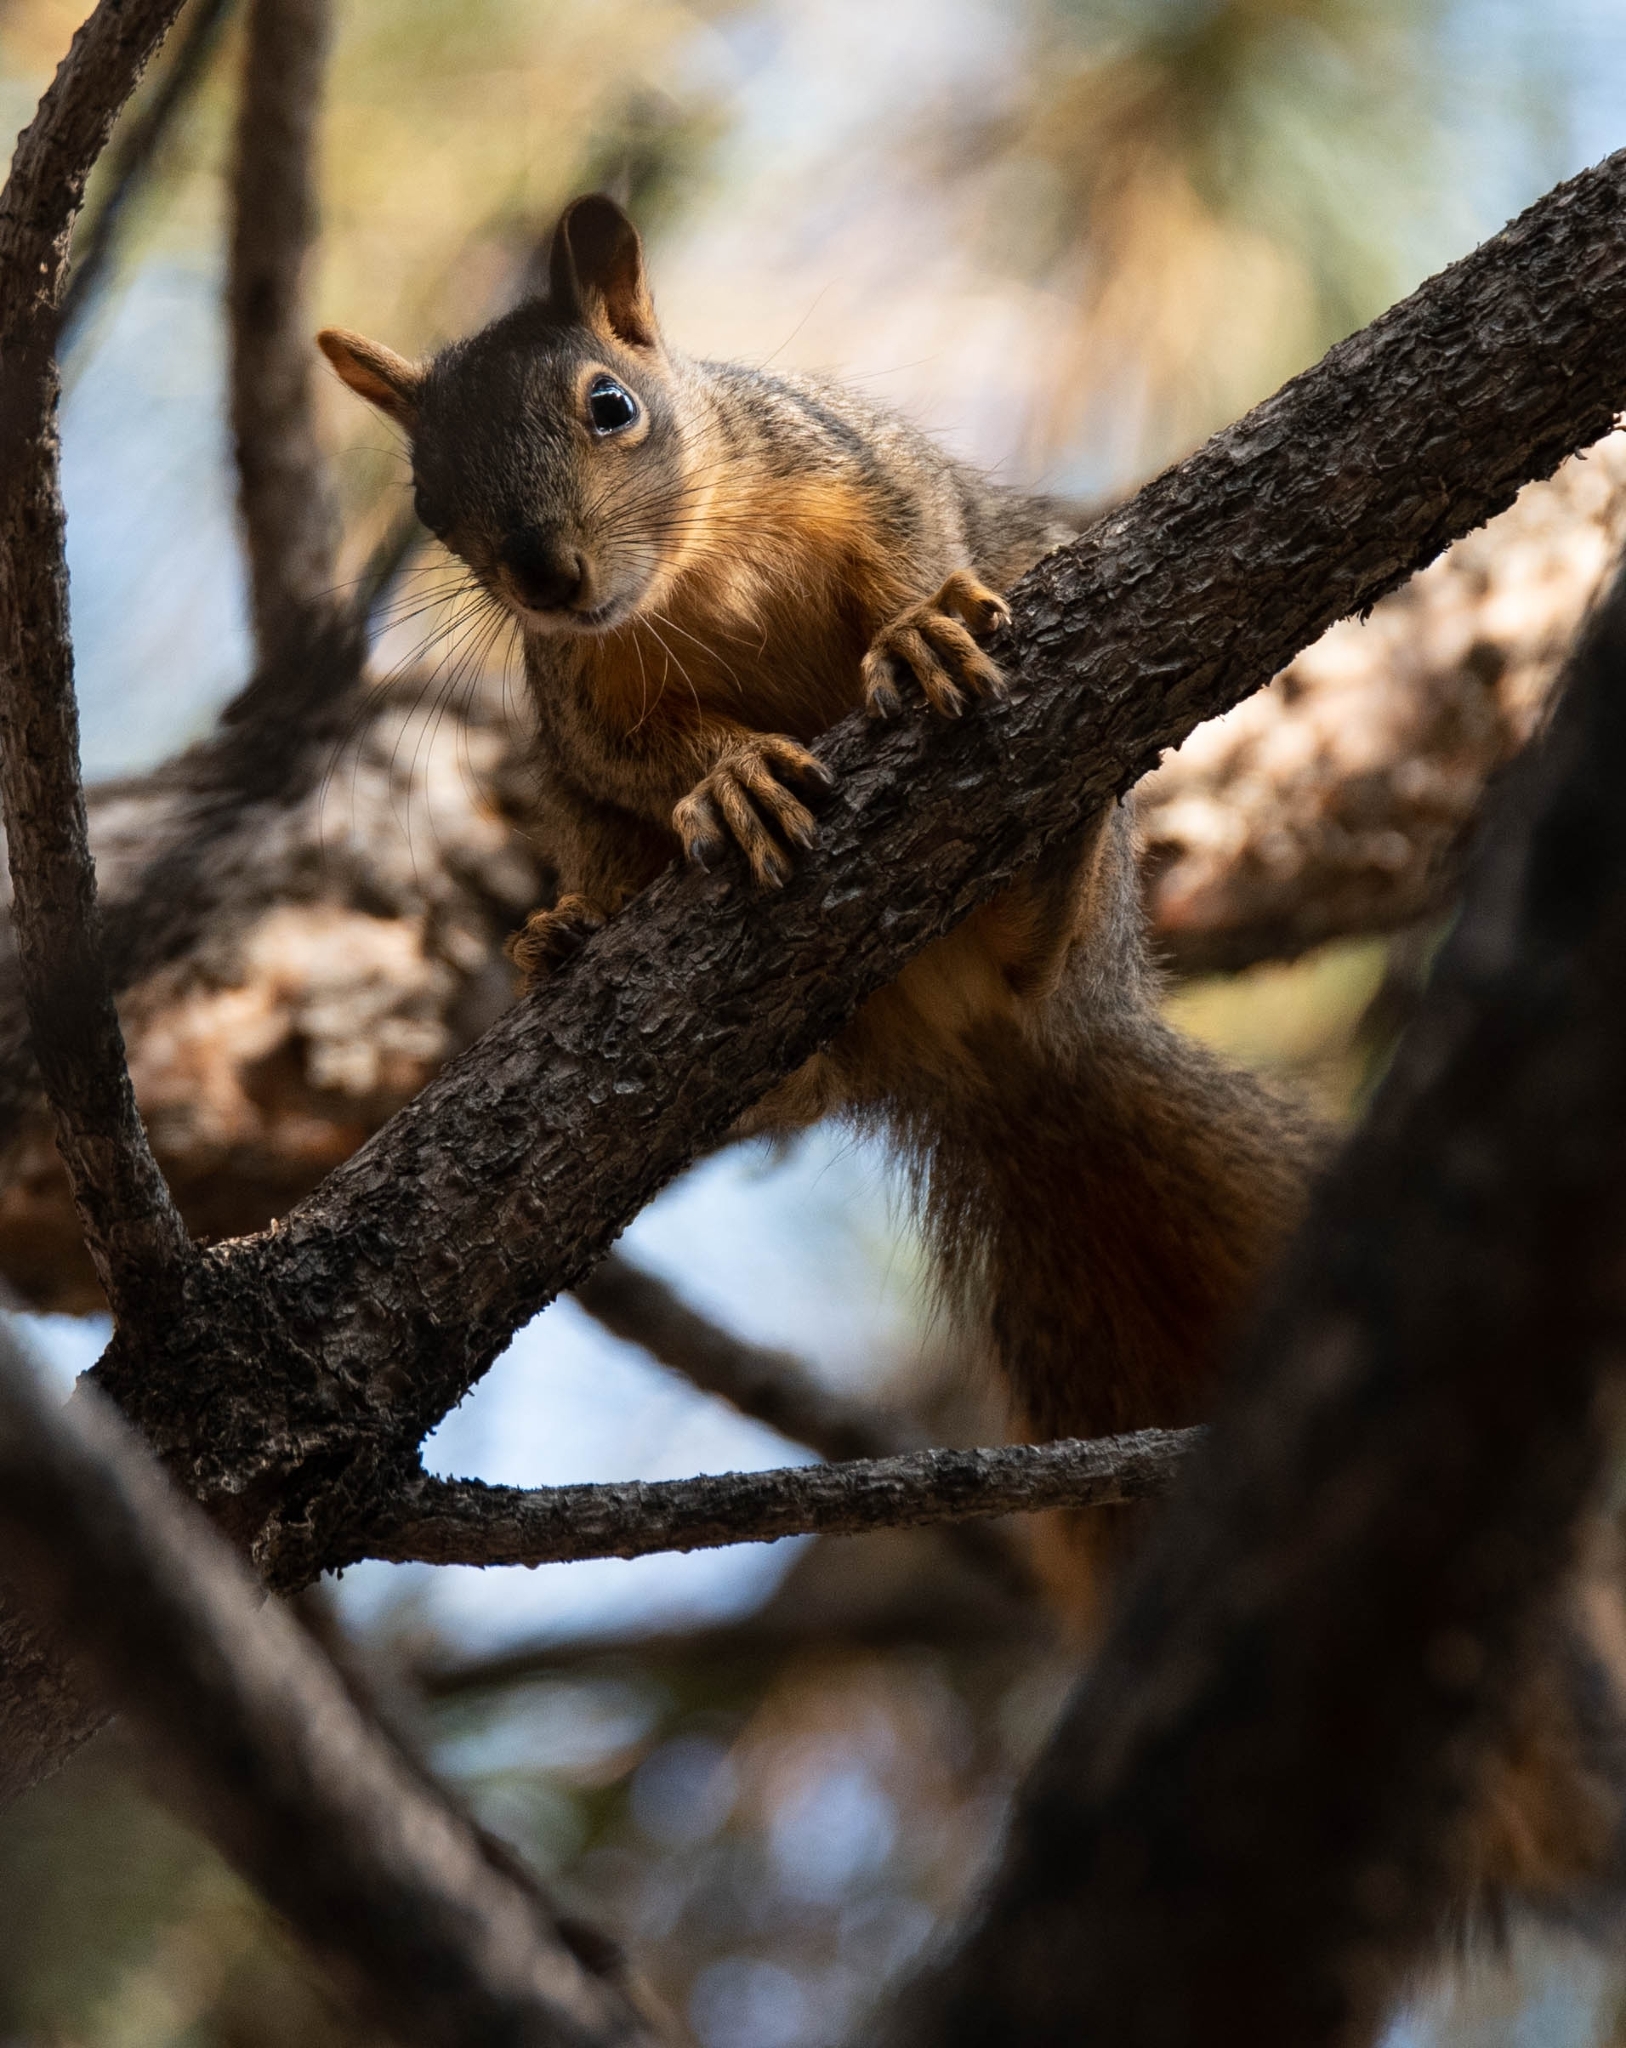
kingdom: Animalia
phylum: Chordata
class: Mammalia
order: Rodentia
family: Sciuridae
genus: Sciurus
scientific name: Sciurus niger
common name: Fox squirrel
